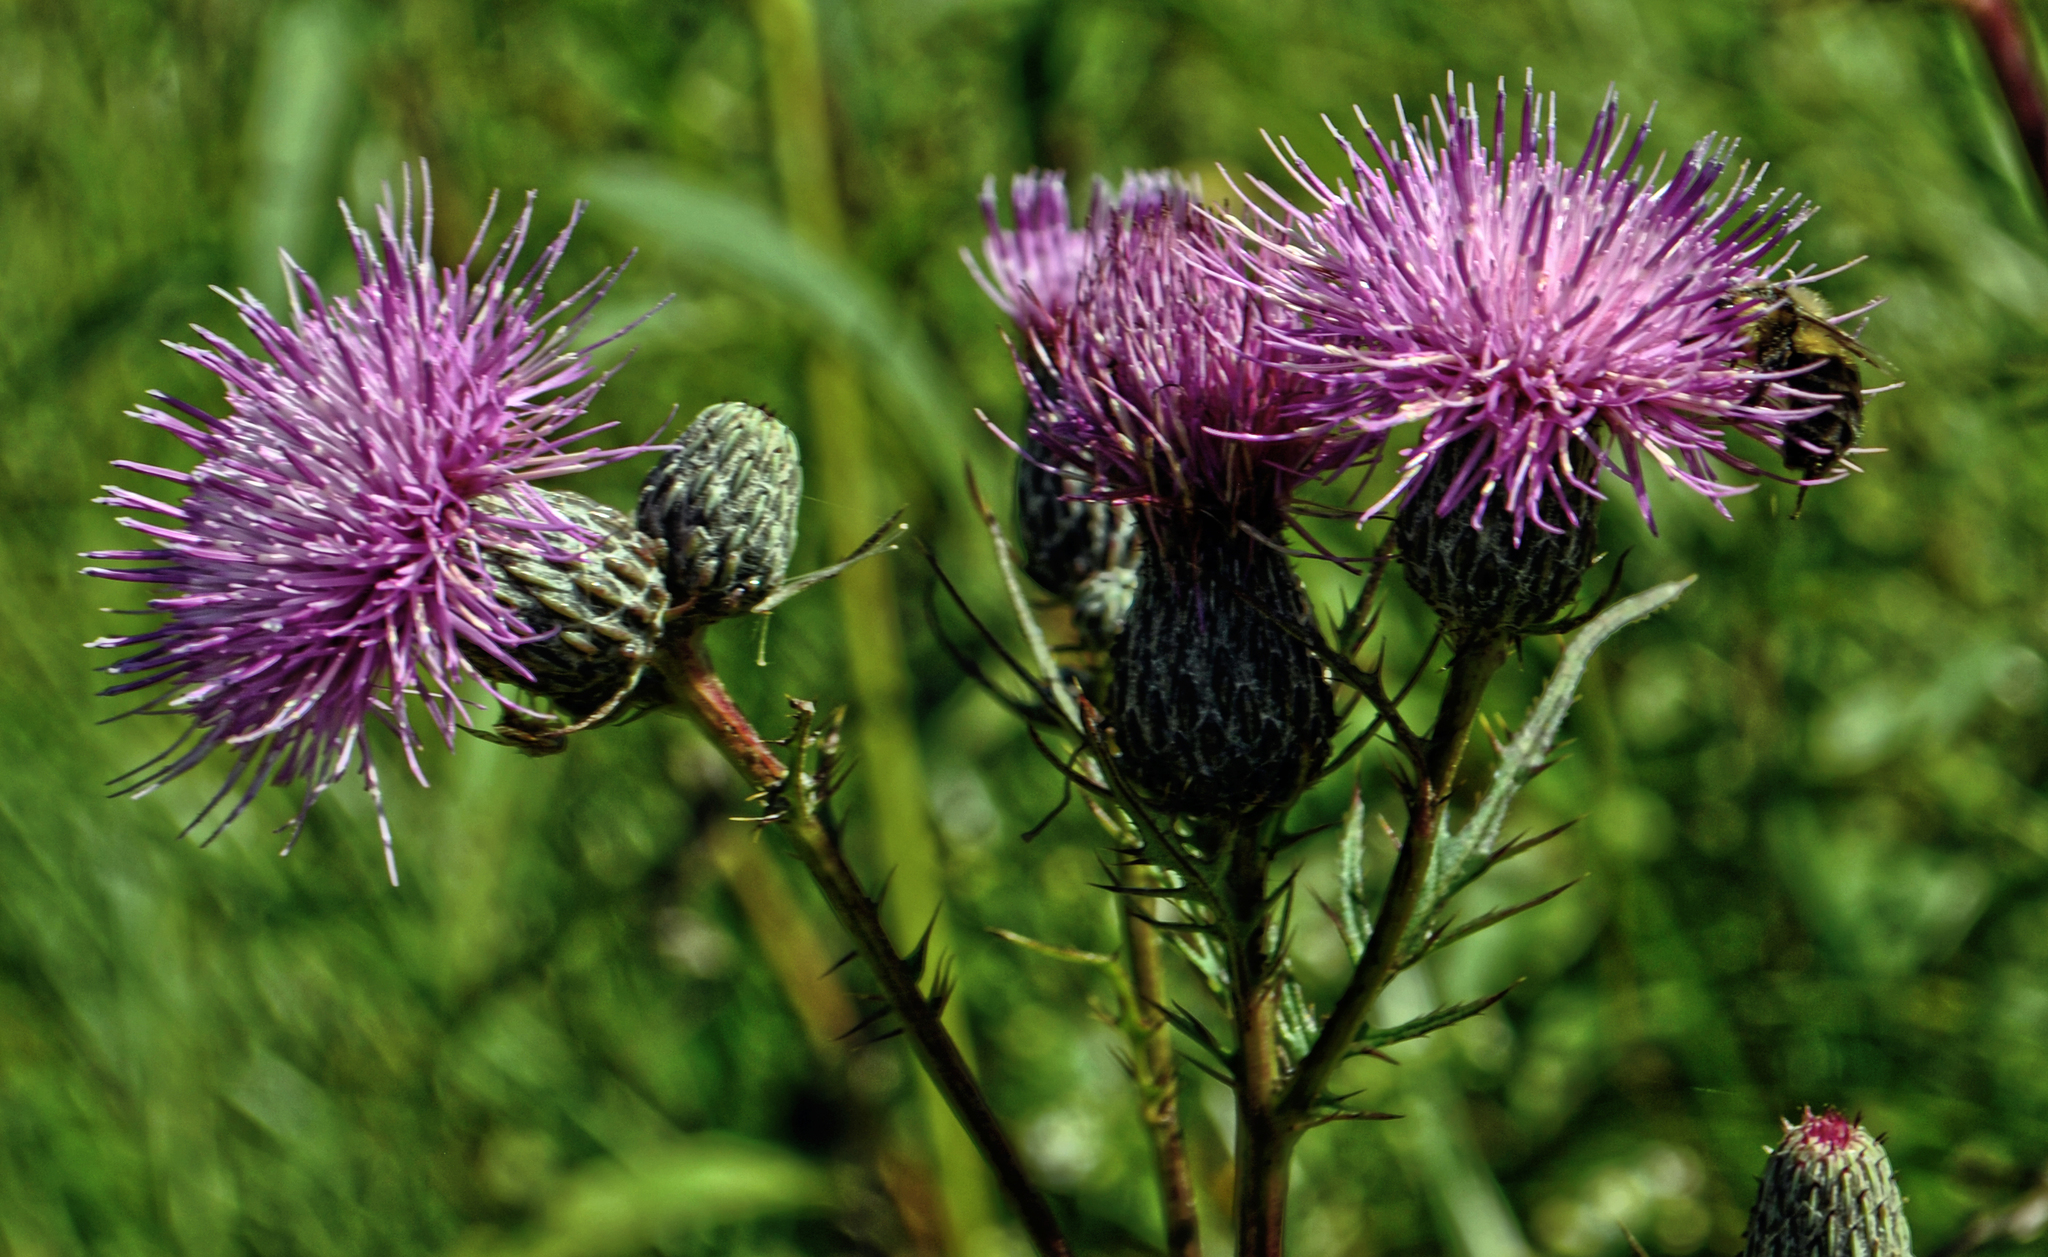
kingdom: Plantae
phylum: Tracheophyta
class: Magnoliopsida
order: Asterales
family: Asteraceae
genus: Cirsium
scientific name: Cirsium muticum
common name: Dunce-nettle
